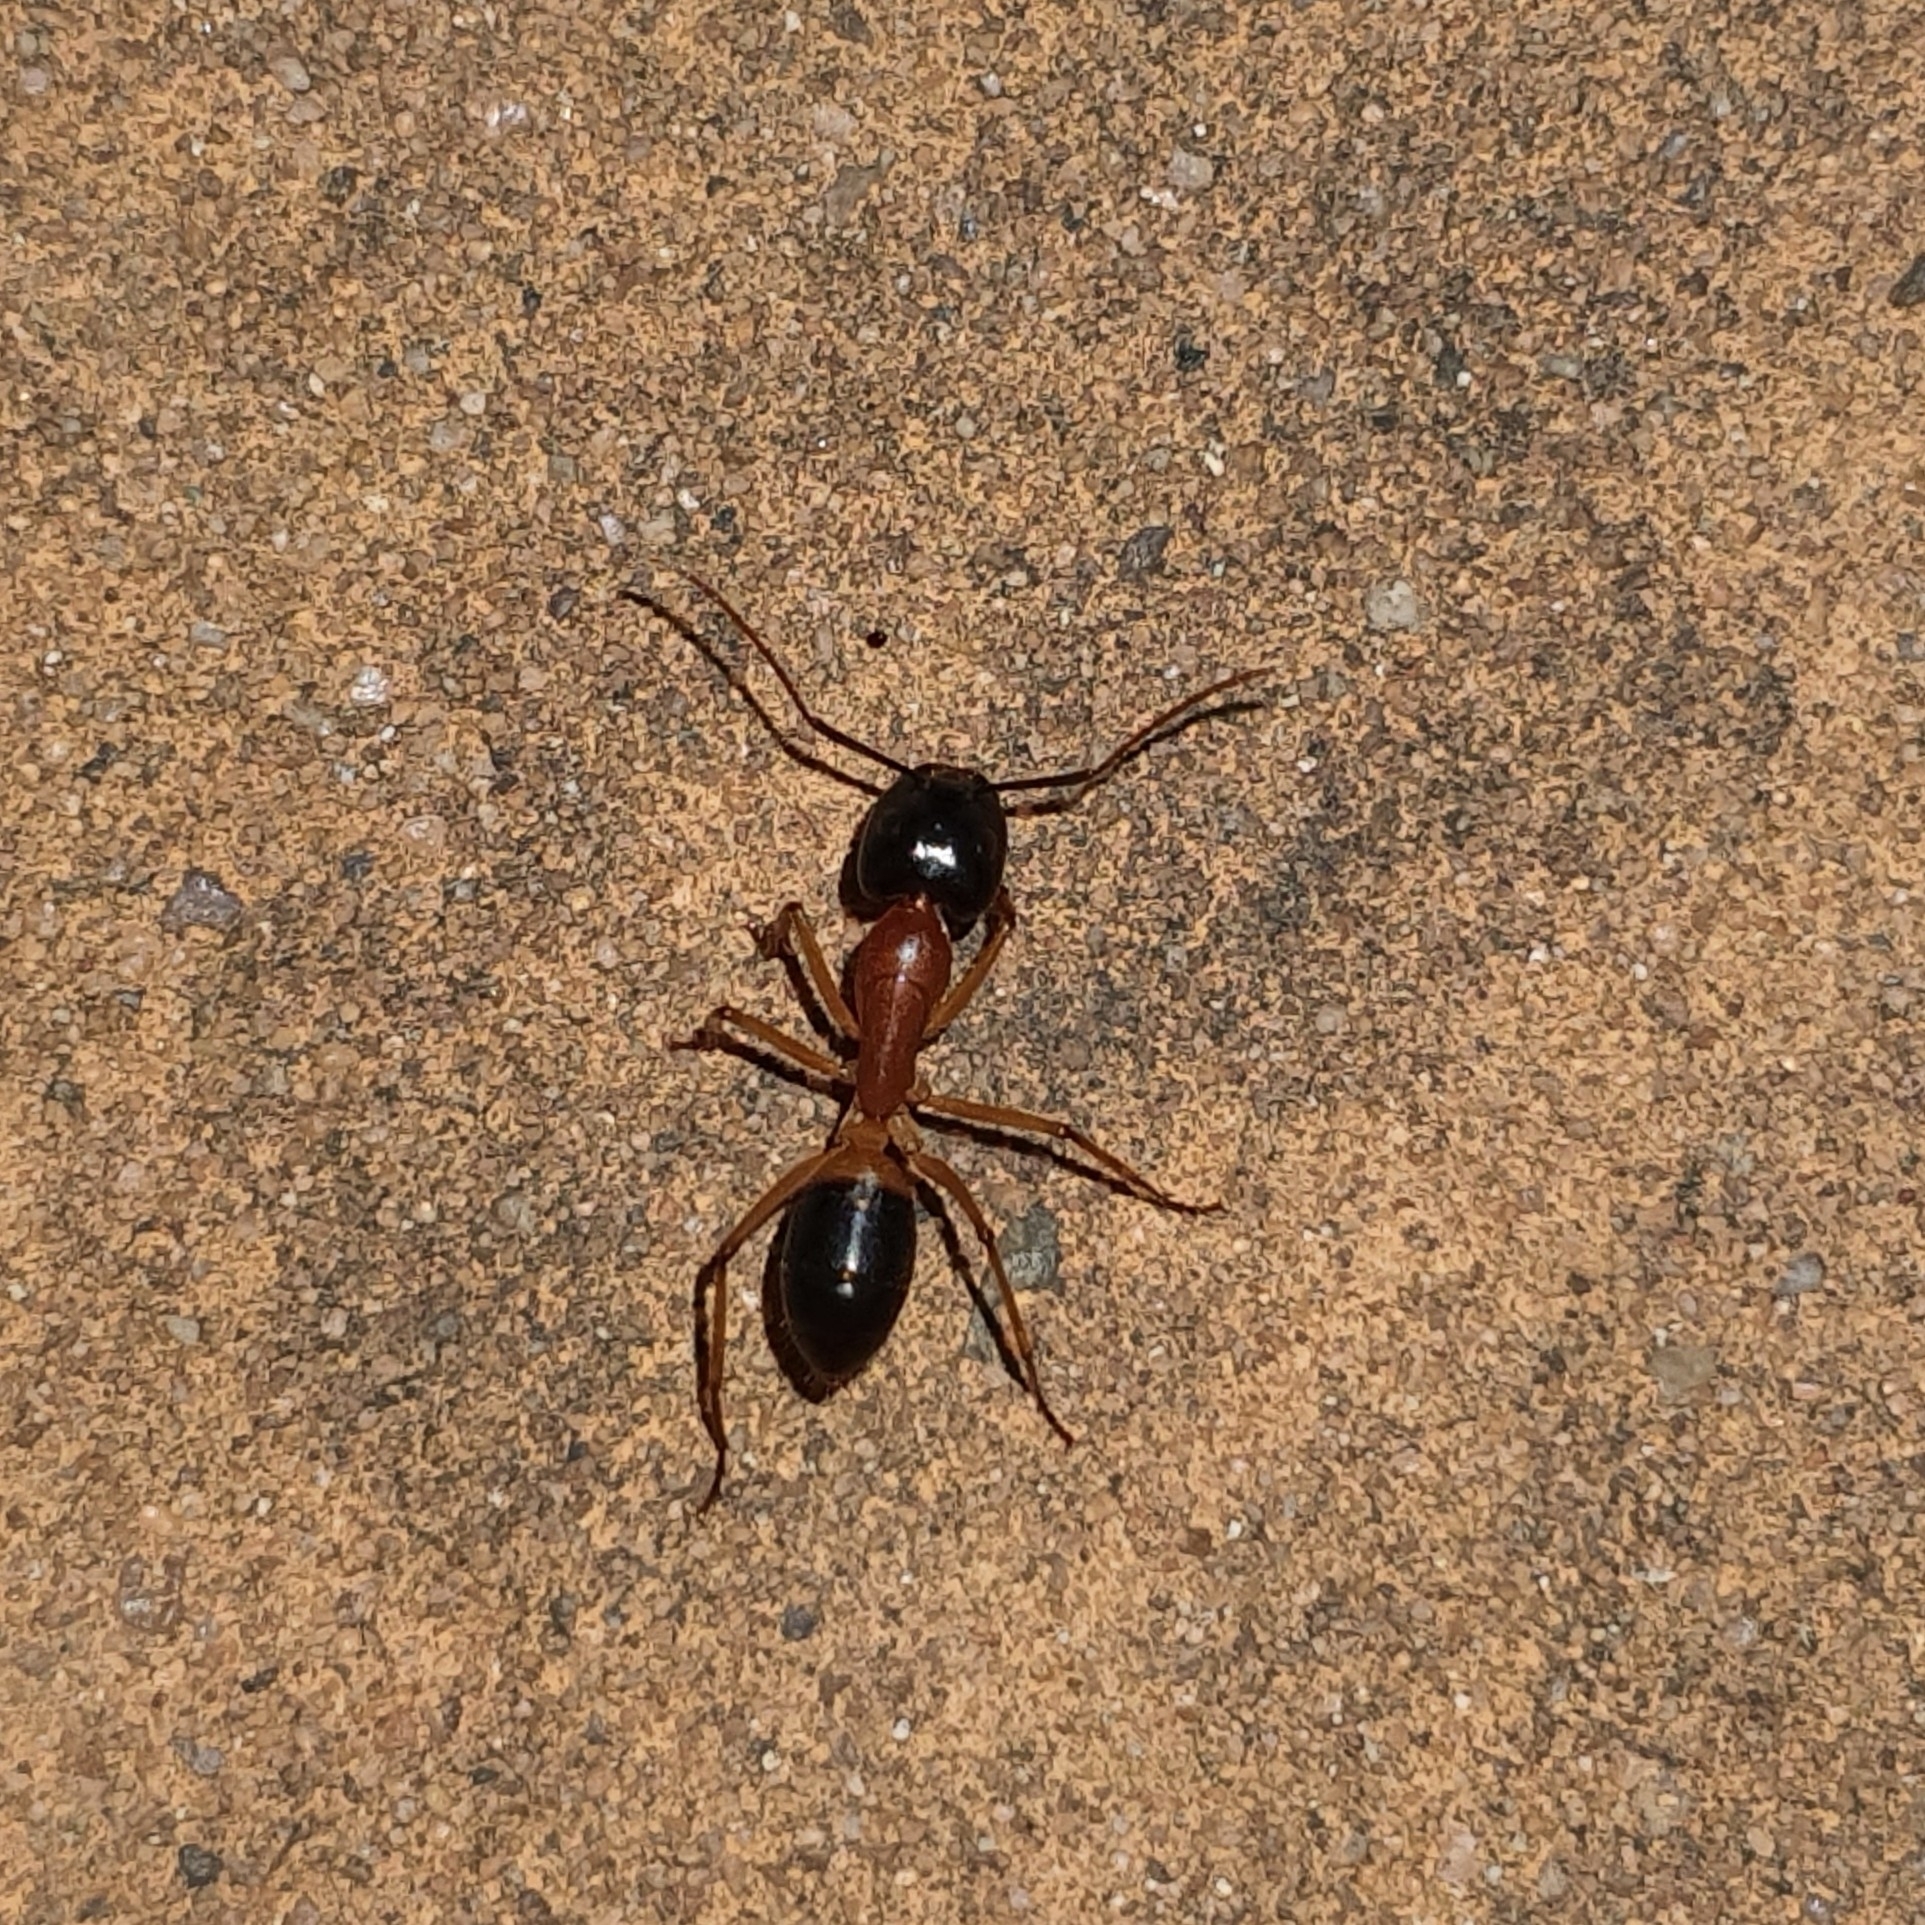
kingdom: Animalia
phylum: Arthropoda
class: Insecta
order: Hymenoptera
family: Formicidae
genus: Camponotus
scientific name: Camponotus consobrinus
